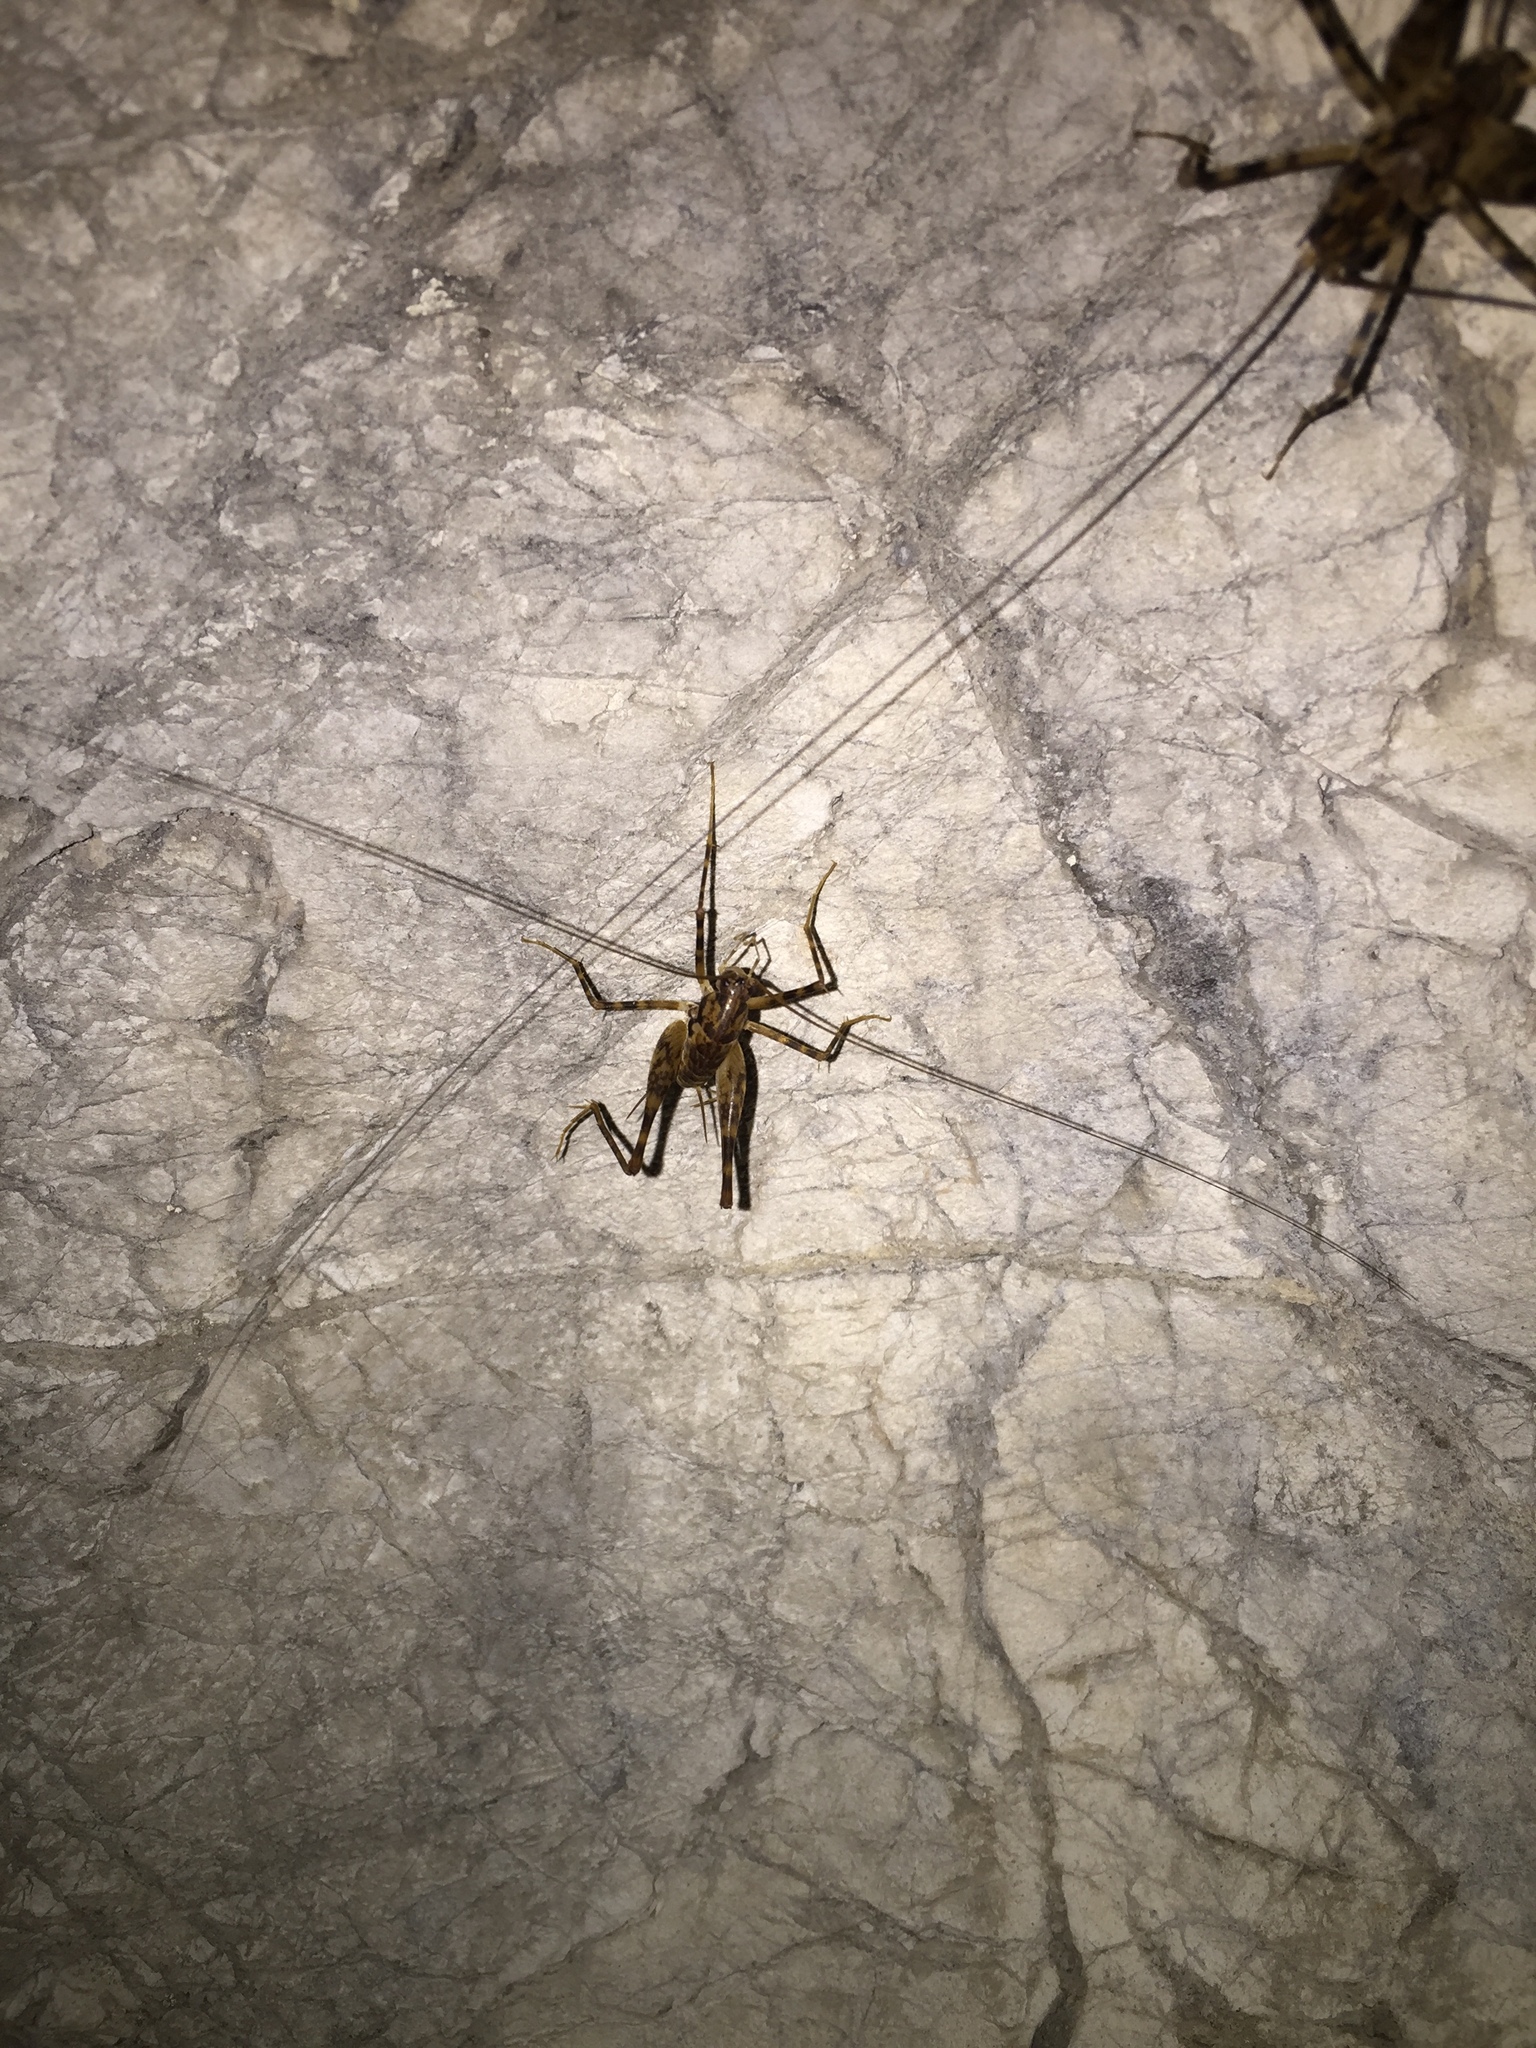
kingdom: Animalia
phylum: Arthropoda
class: Insecta
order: Orthoptera
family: Rhaphidophoridae
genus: Diestrammena
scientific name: Diestrammena japanica
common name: Japanese camel cricket
